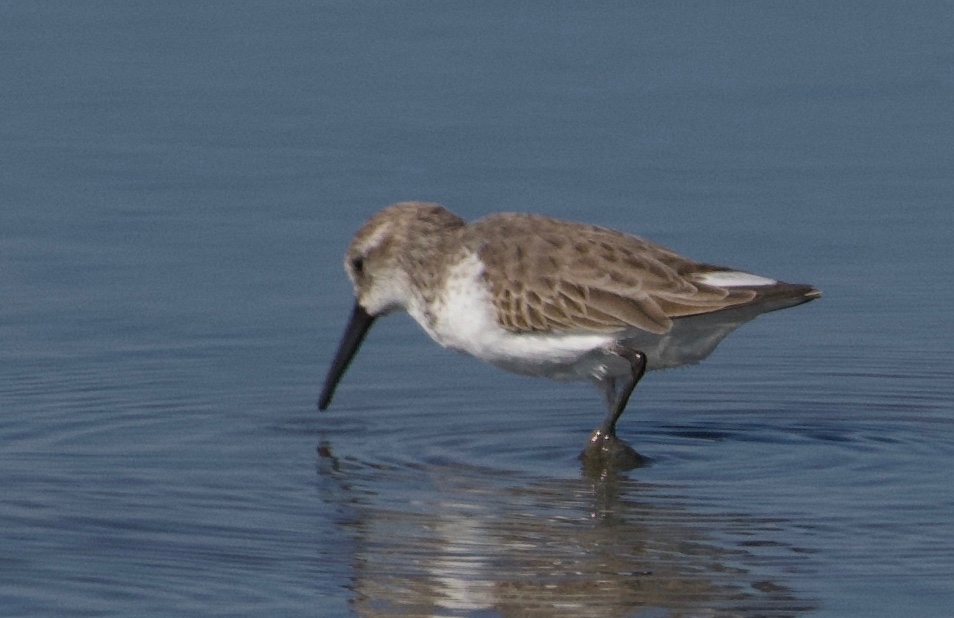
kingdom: Animalia
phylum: Chordata
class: Aves
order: Charadriiformes
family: Scolopacidae
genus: Calidris
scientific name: Calidris mauri
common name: Western sandpiper
